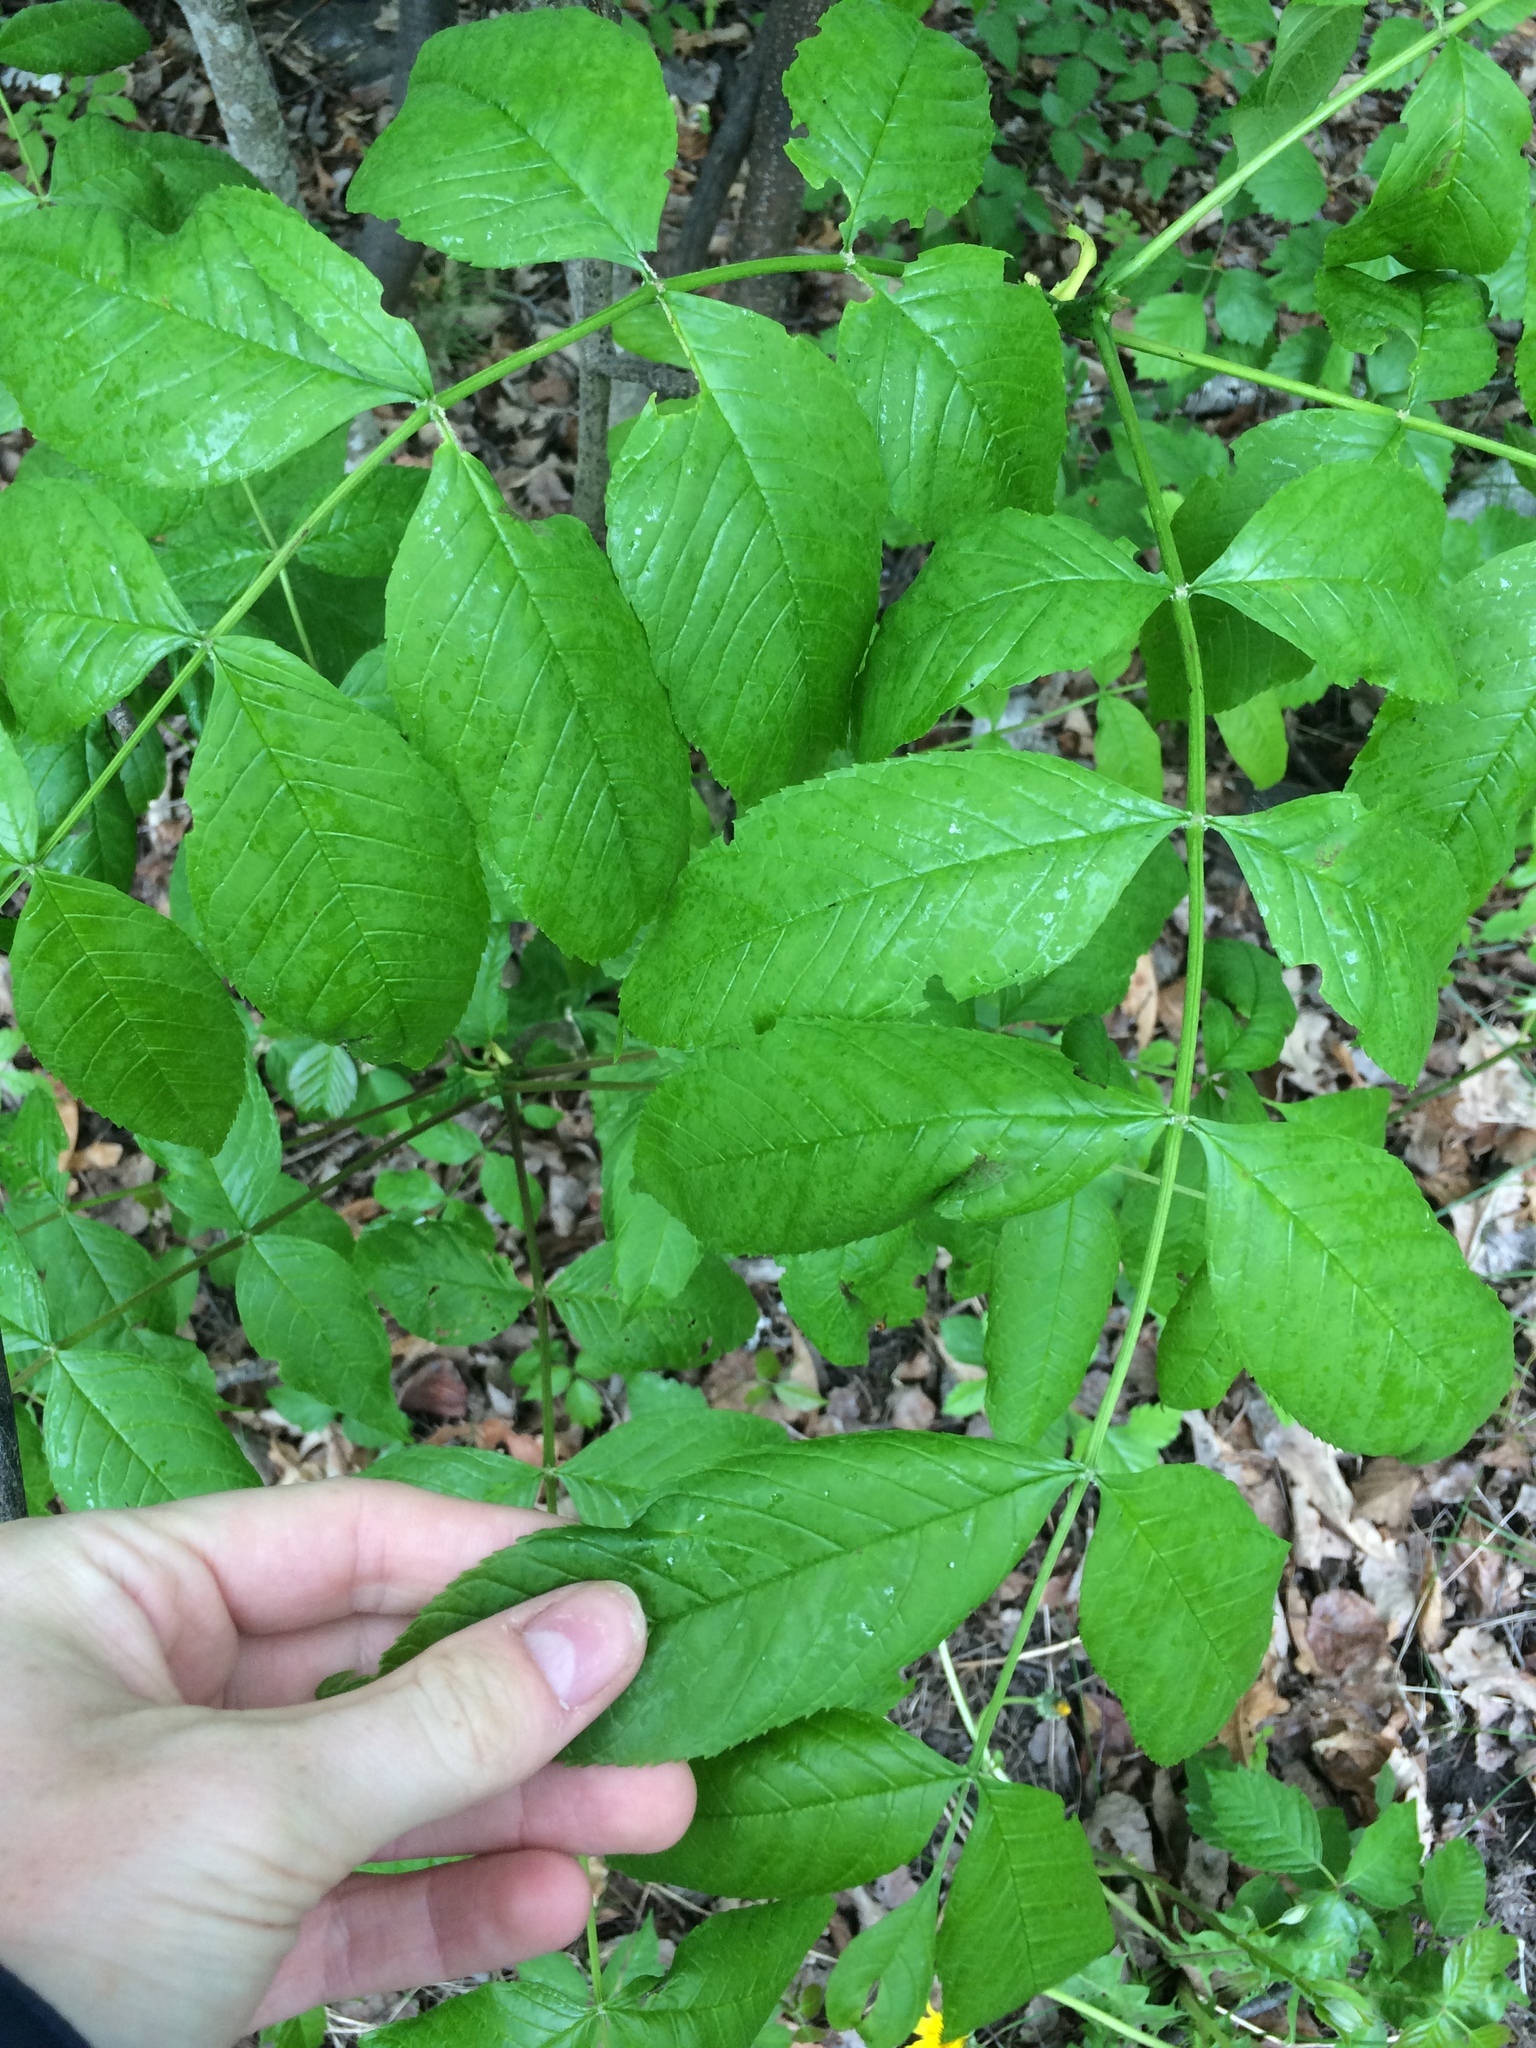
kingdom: Plantae
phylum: Tracheophyta
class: Magnoliopsida
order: Lamiales
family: Oleaceae
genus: Fraxinus
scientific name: Fraxinus nigra
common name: Black ash
